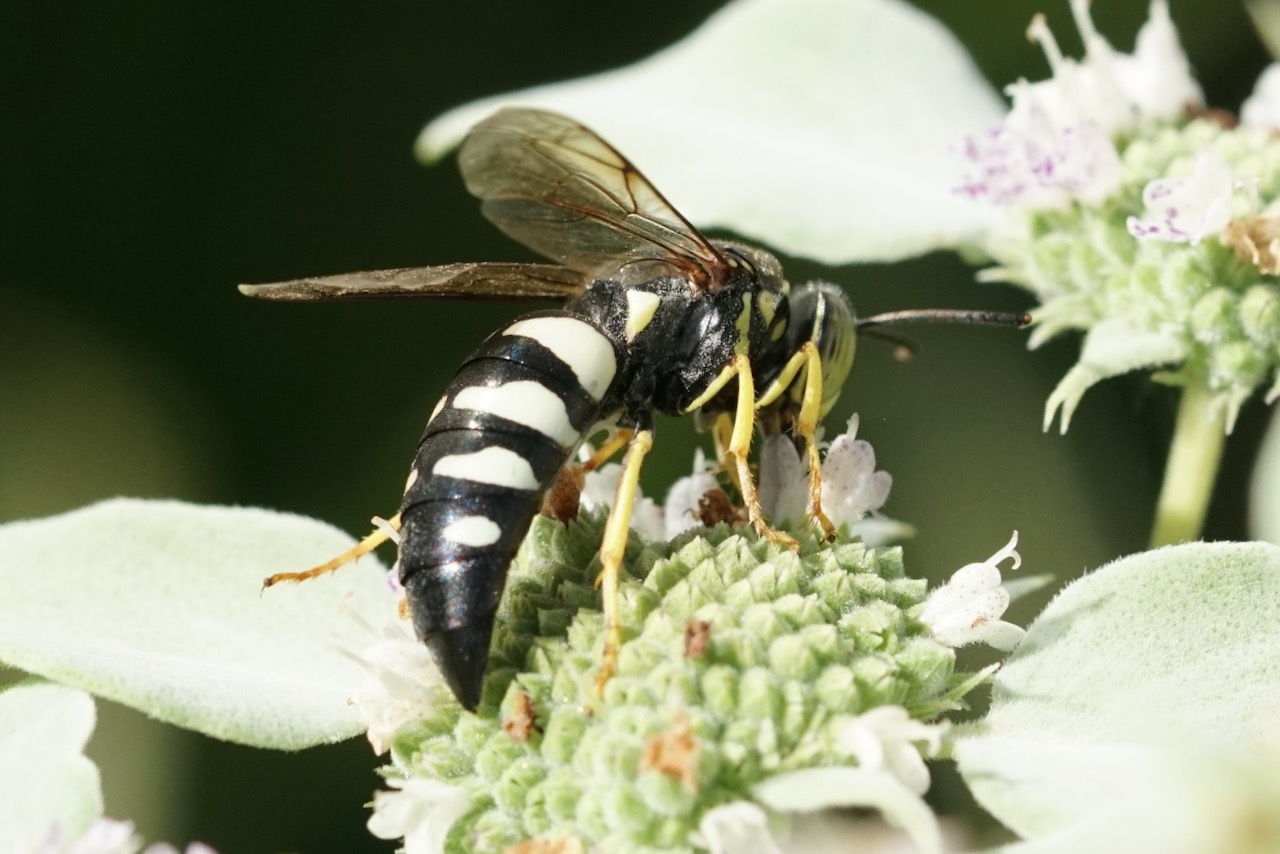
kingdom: Animalia
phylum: Arthropoda
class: Insecta
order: Hymenoptera
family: Crabronidae
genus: Bicyrtes
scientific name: Bicyrtes quadrifasciatus
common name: Four-banded stink bug hunter wasp
